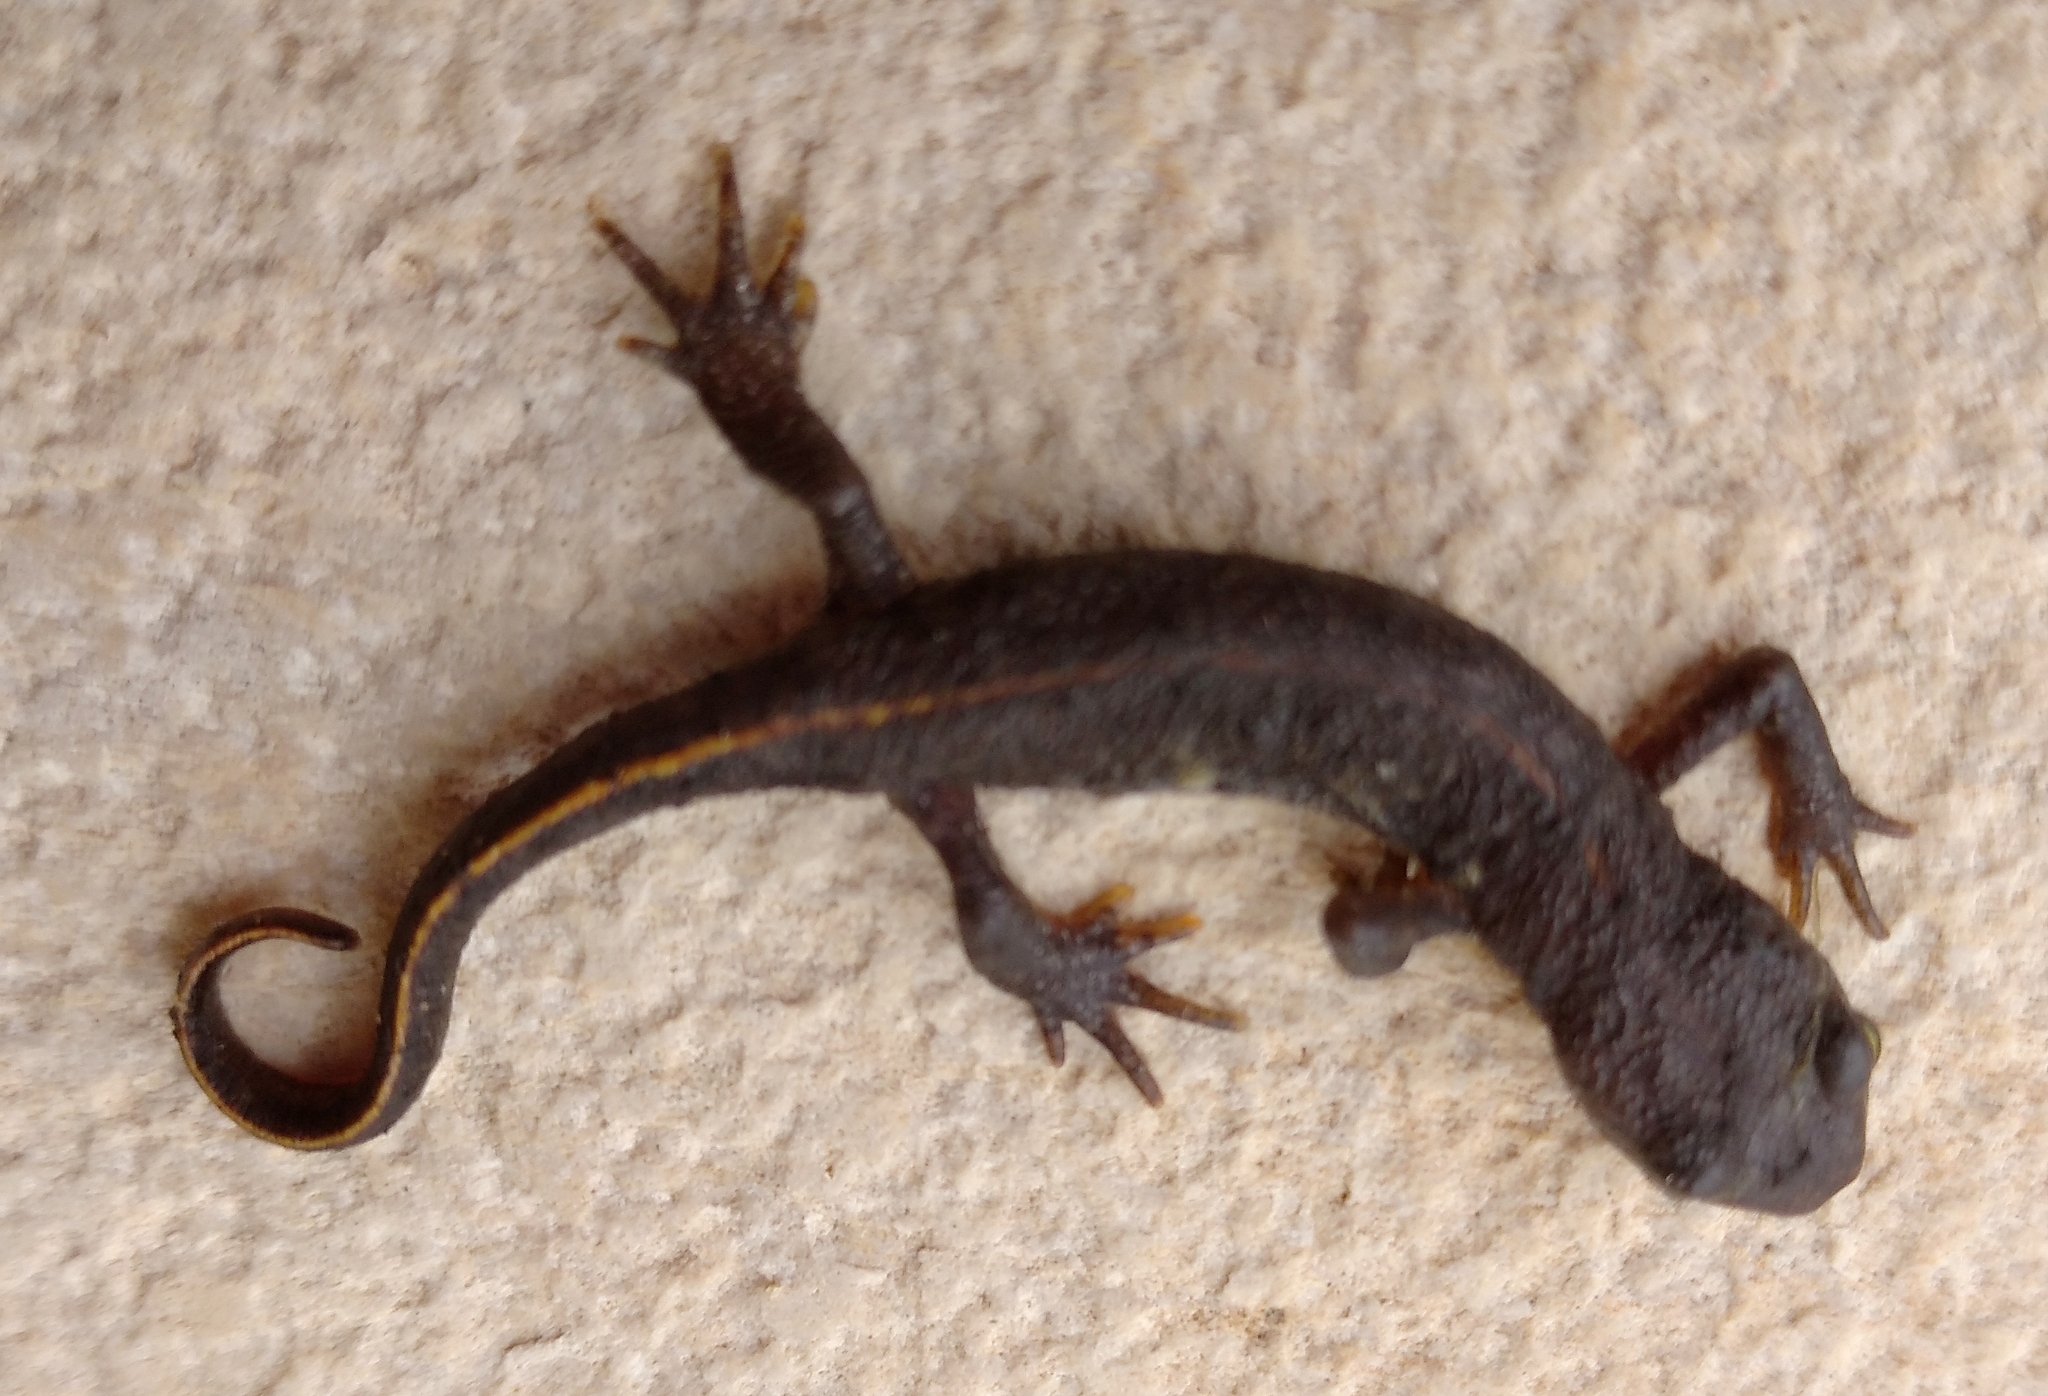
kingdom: Animalia
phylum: Chordata
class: Amphibia
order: Caudata
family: Salamandridae
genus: Triturus
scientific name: Triturus ivanbureschi
